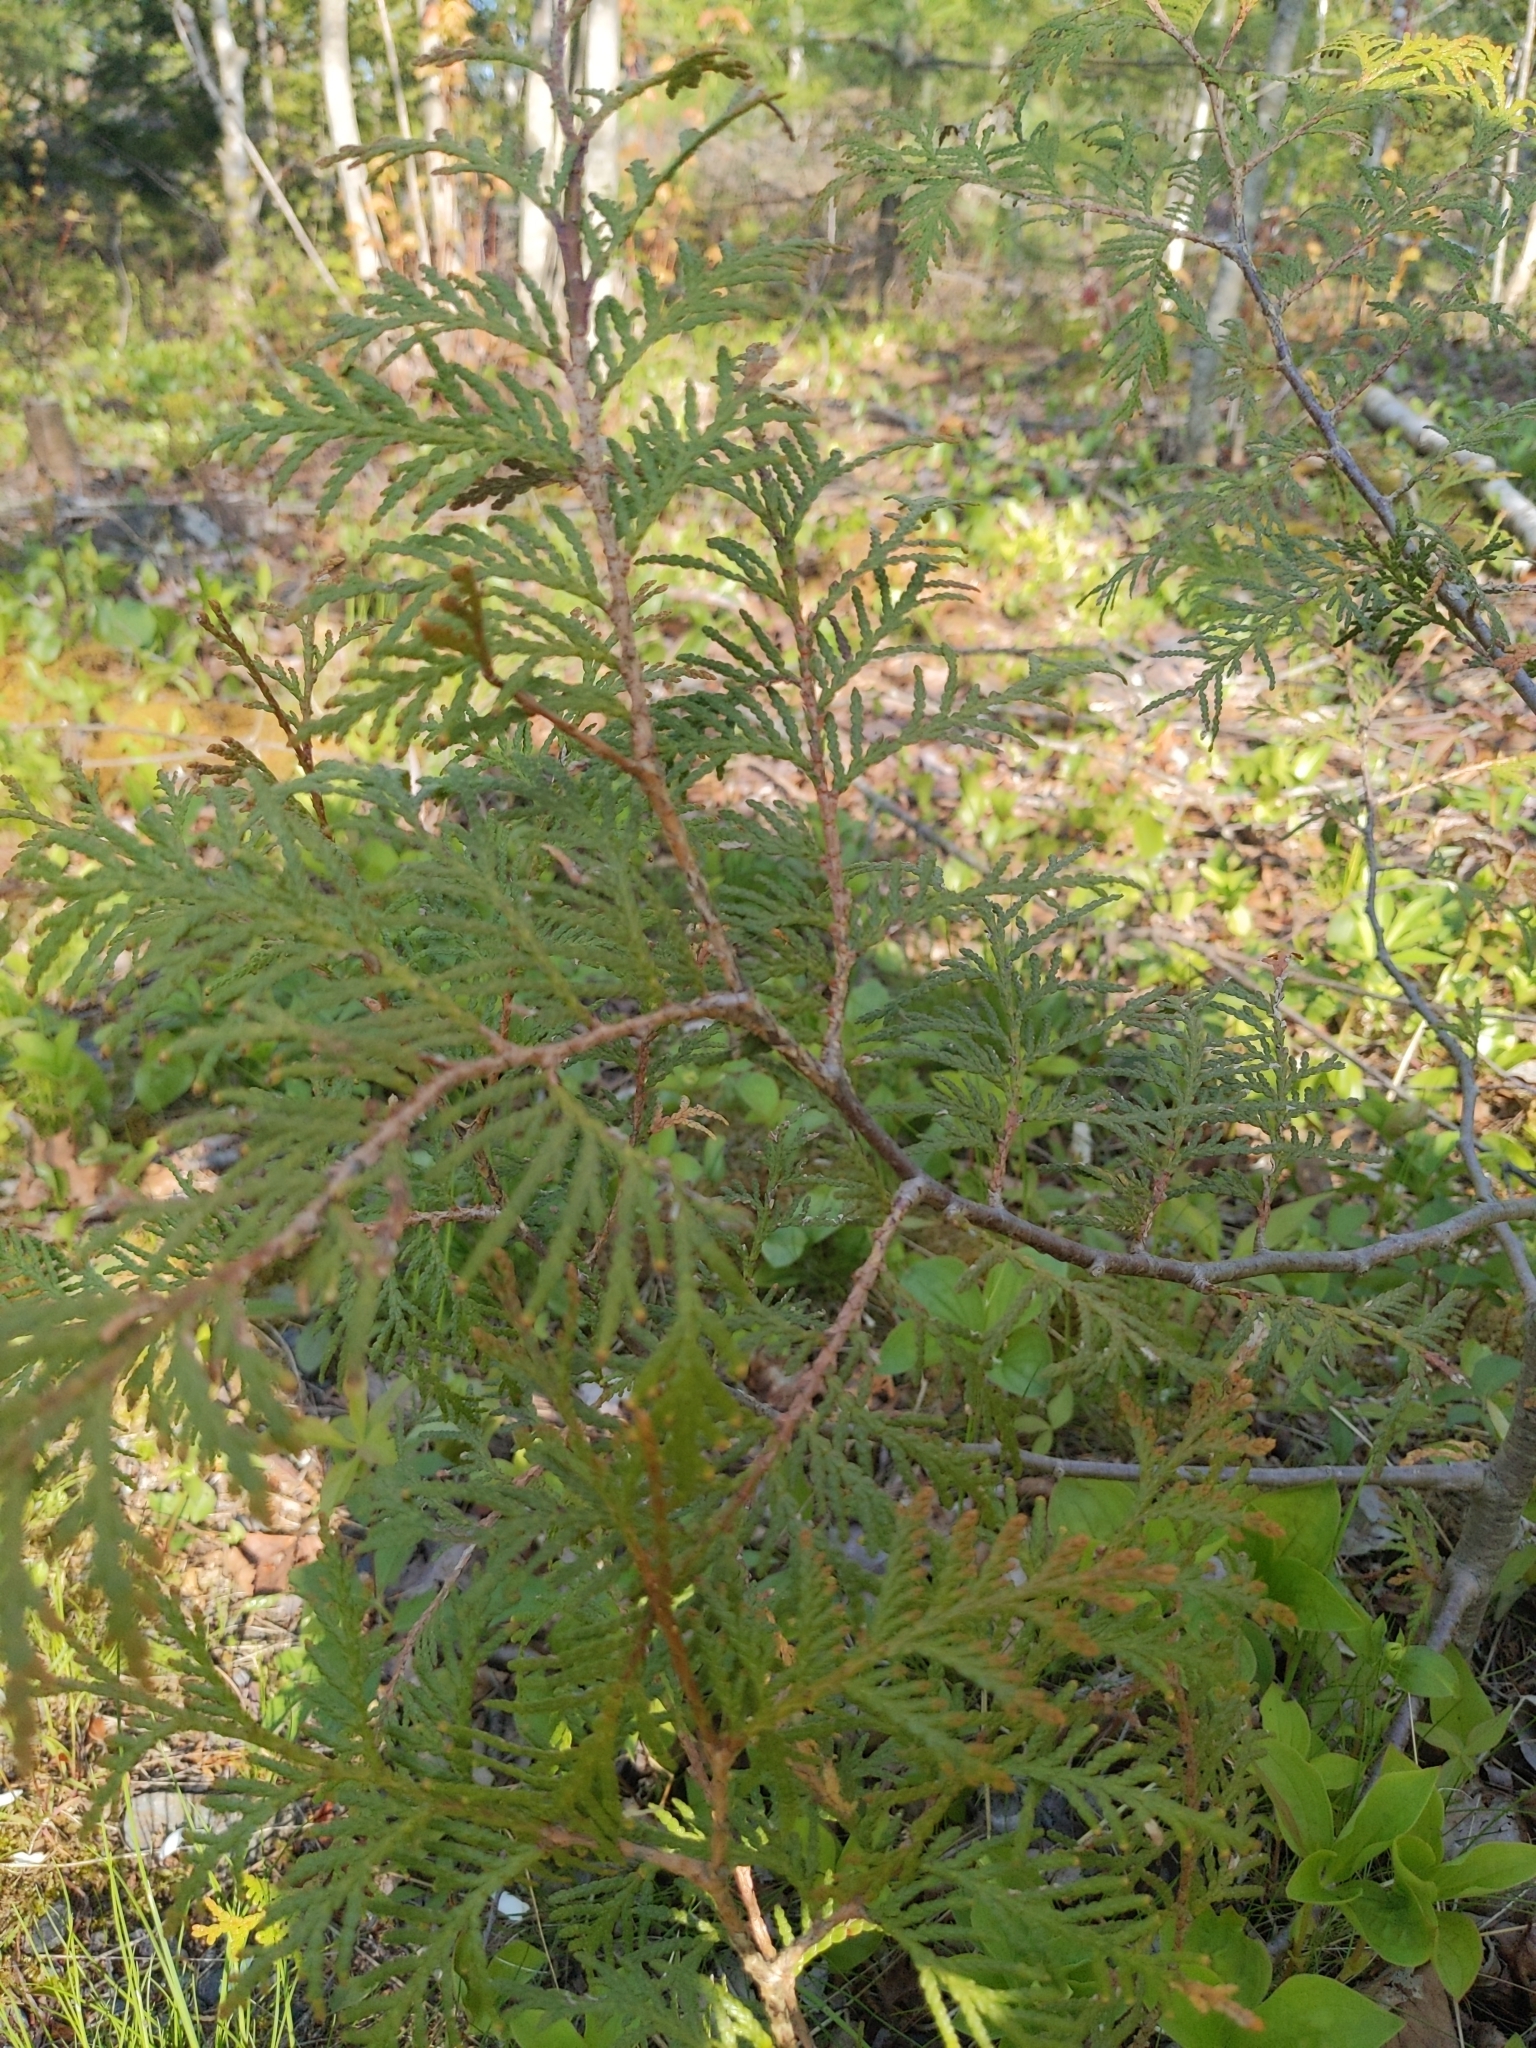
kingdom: Plantae
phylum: Tracheophyta
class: Pinopsida
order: Pinales
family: Cupressaceae
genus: Thuja
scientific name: Thuja occidentalis
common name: Northern white-cedar
